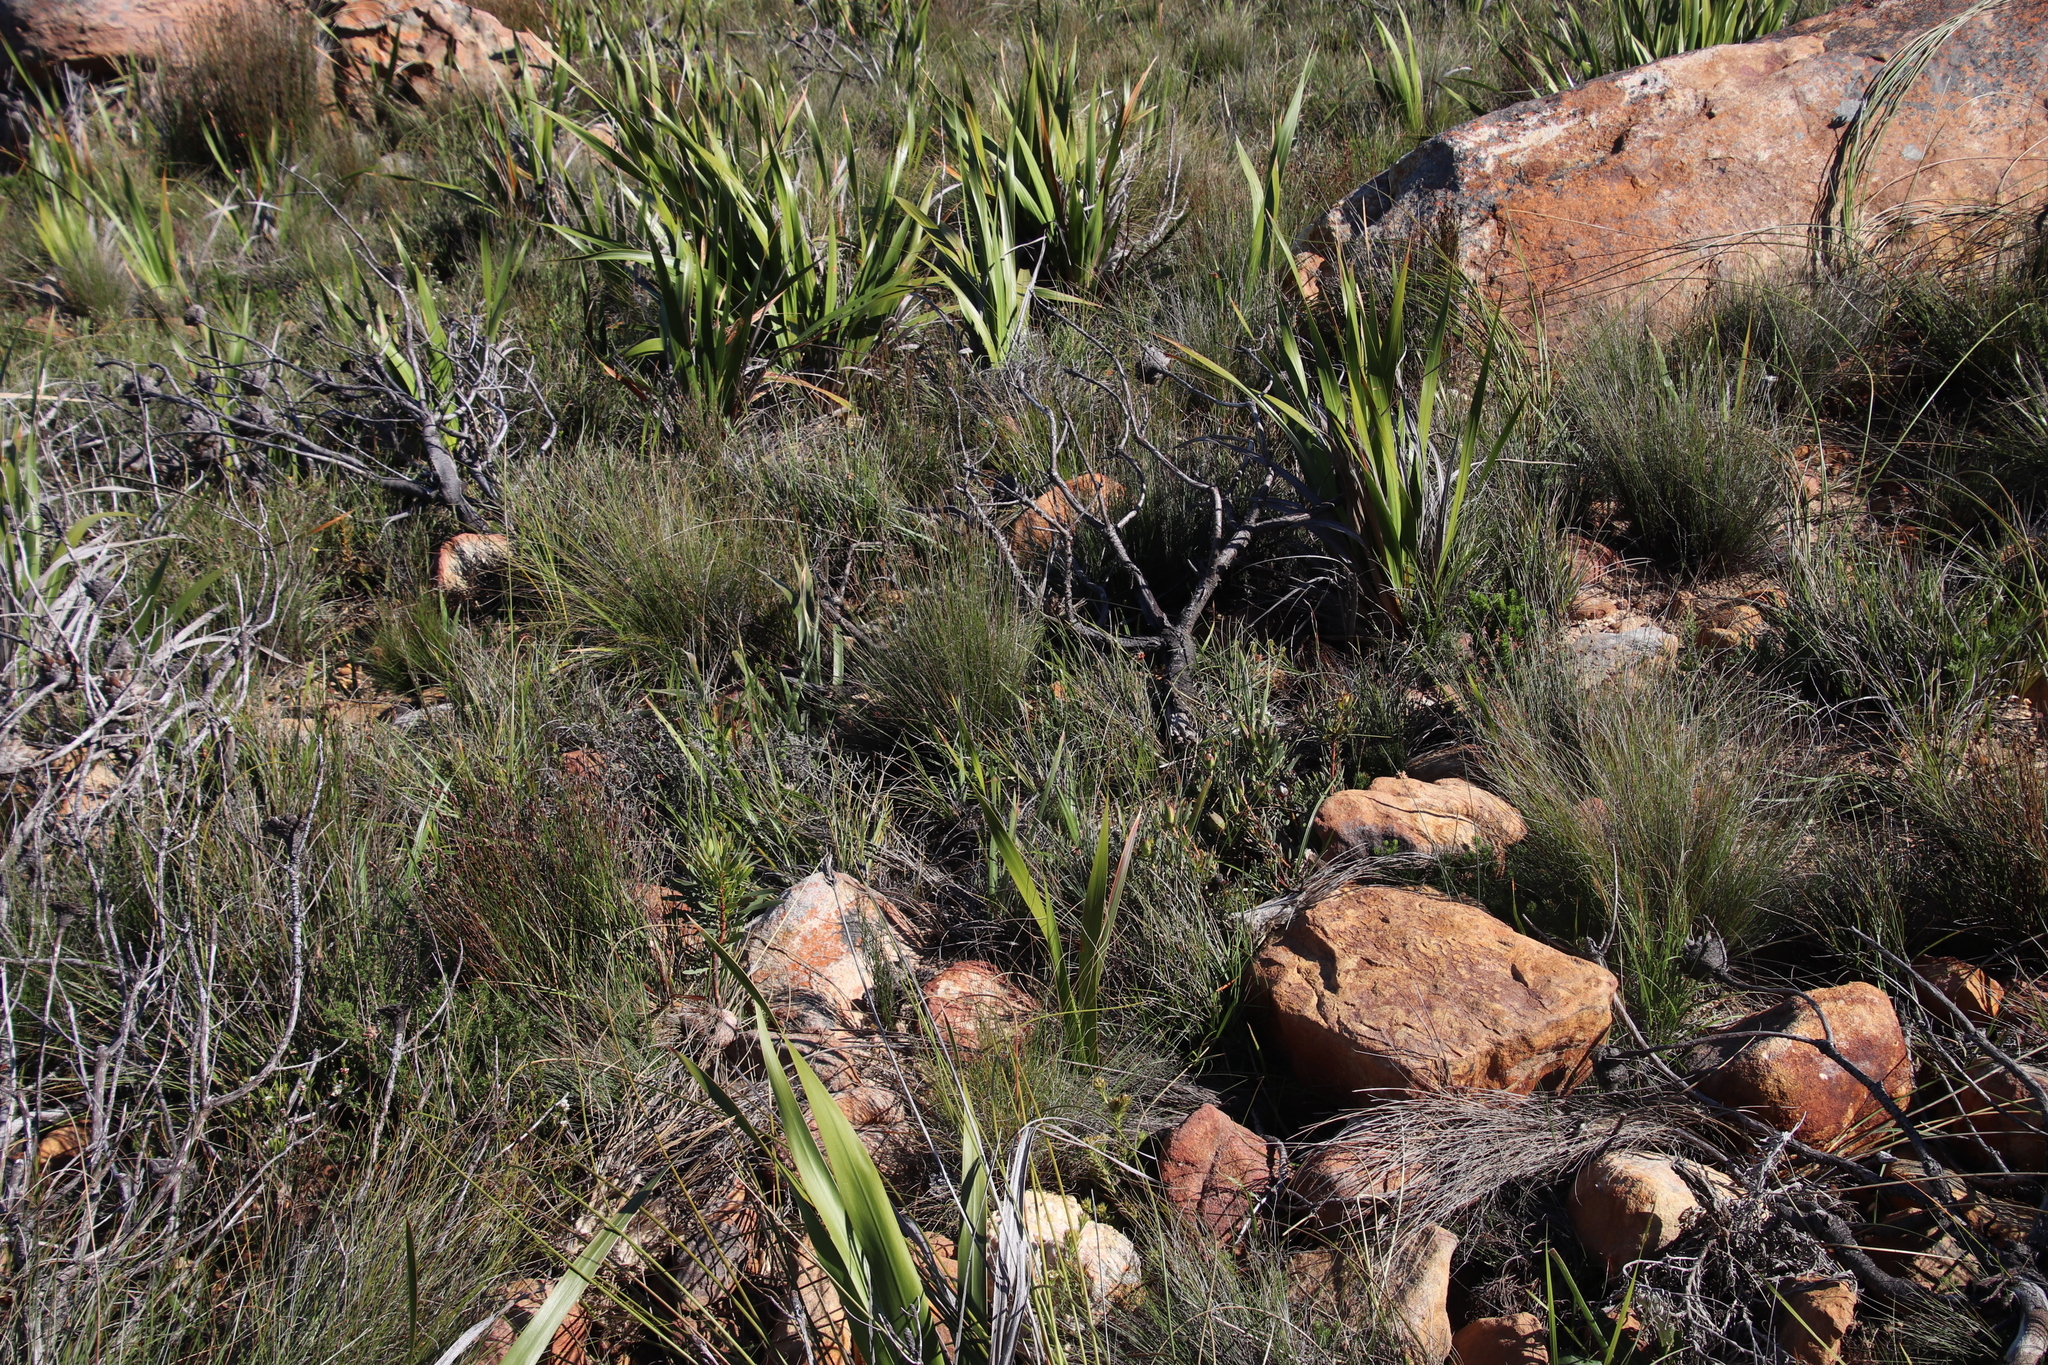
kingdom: Plantae
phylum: Tracheophyta
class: Magnoliopsida
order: Proteales
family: Proteaceae
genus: Protea
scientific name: Protea repens
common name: Sugarbush
